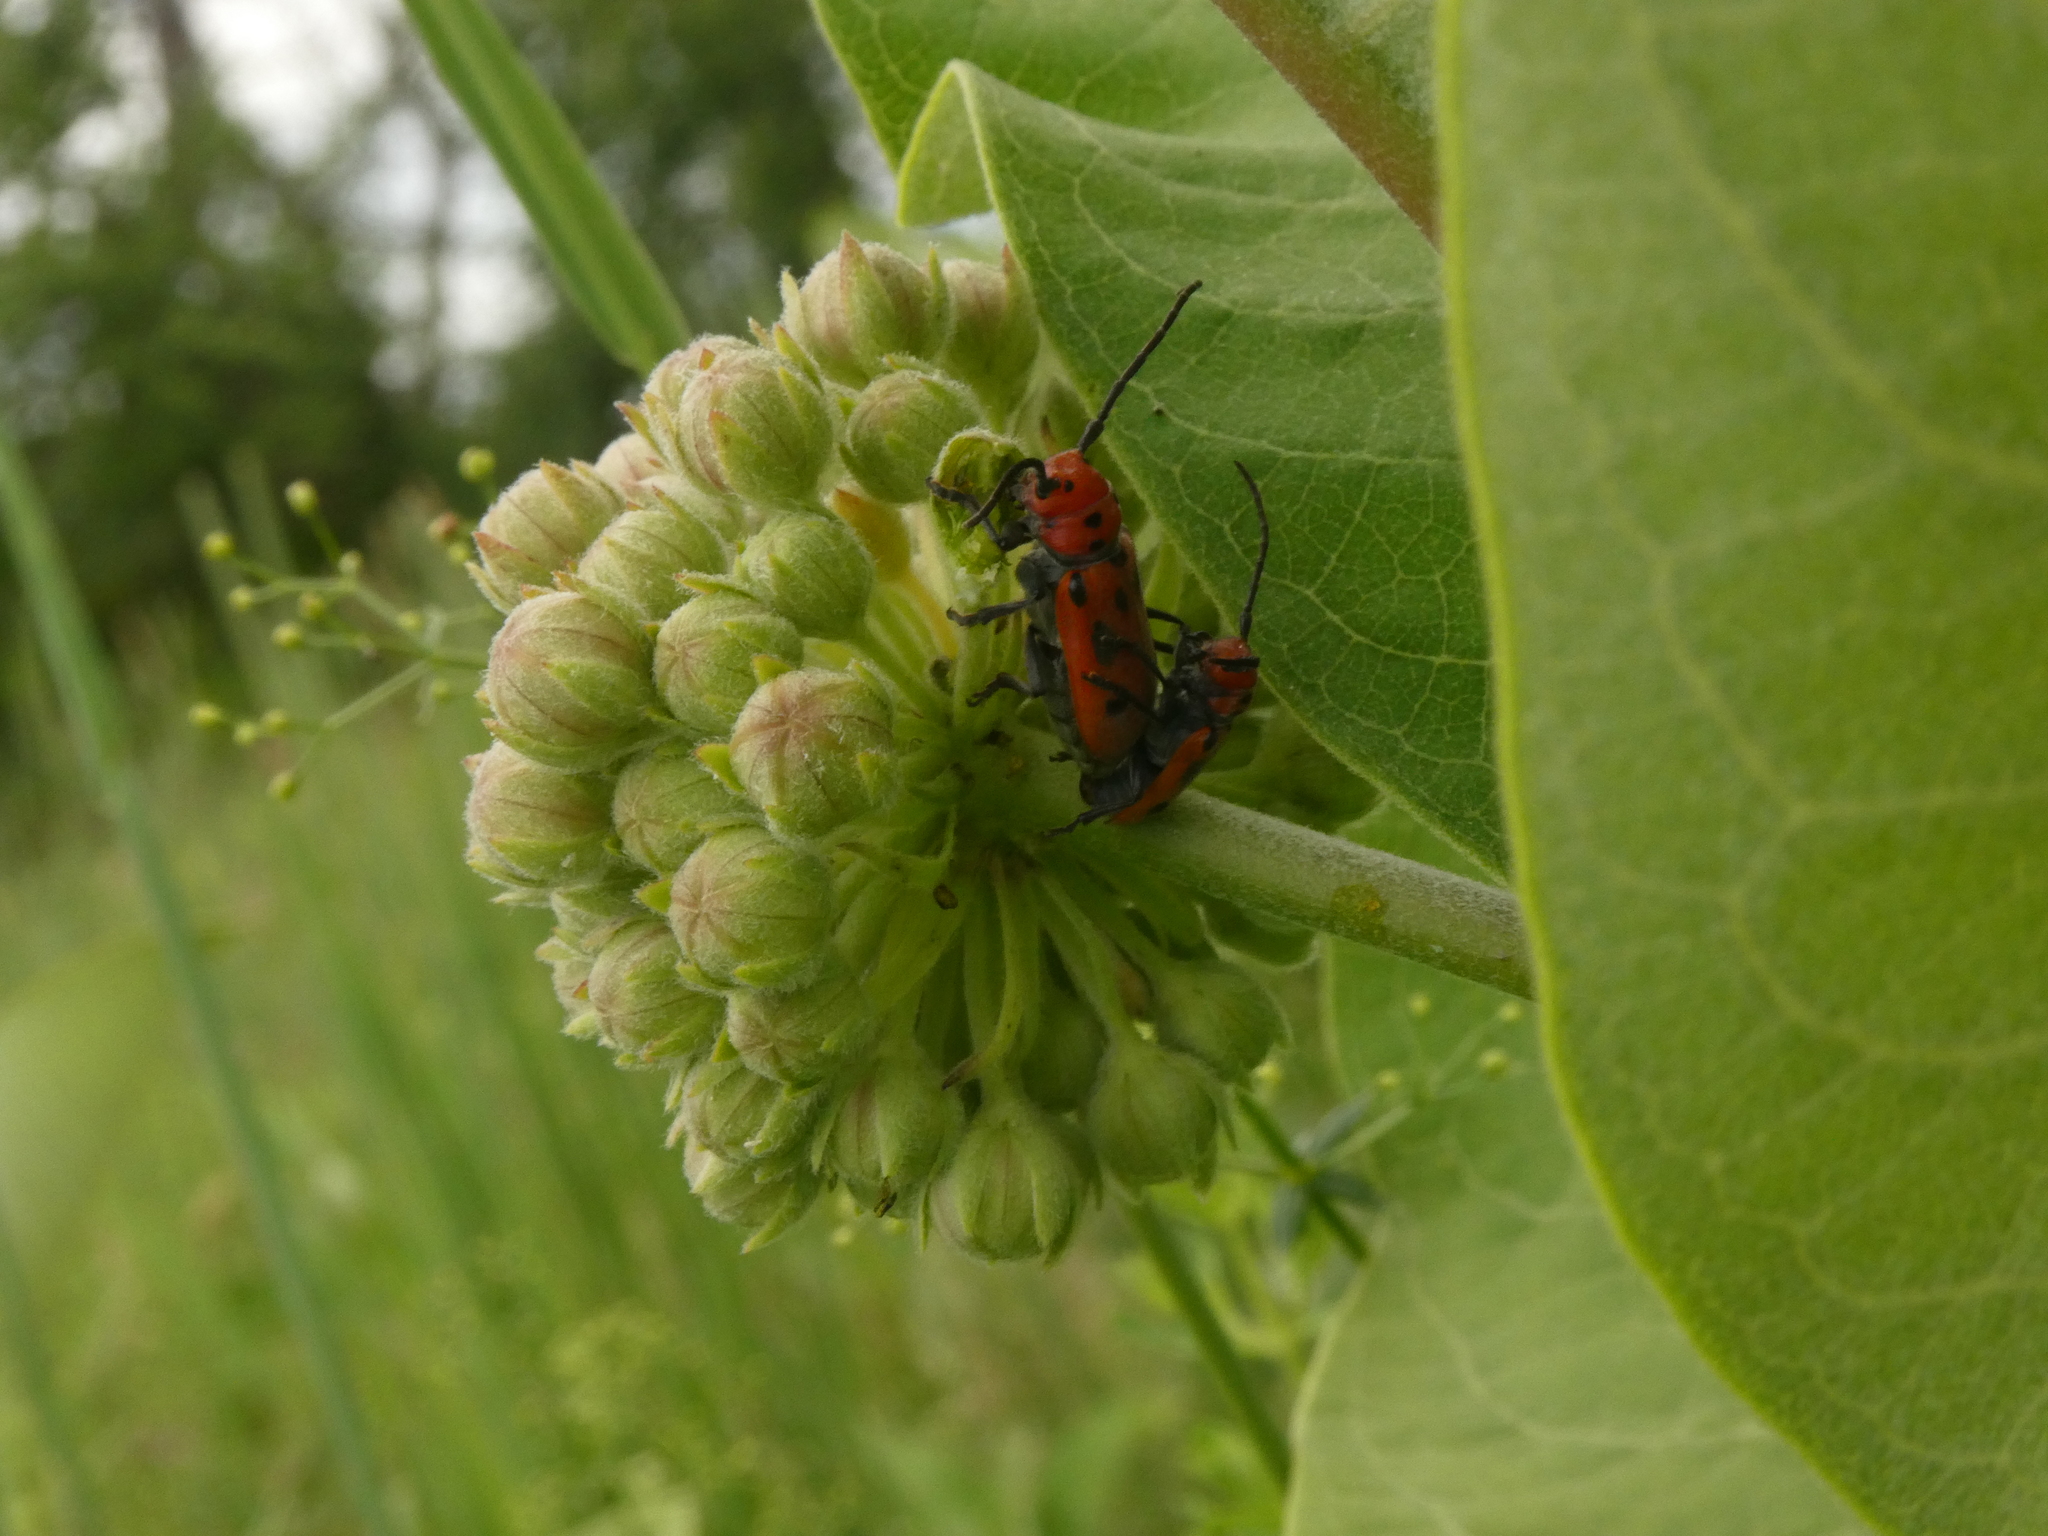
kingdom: Animalia
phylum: Arthropoda
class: Insecta
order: Coleoptera
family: Cerambycidae
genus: Tetraopes
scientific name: Tetraopes tetrophthalmus
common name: Red milkweed beetle
